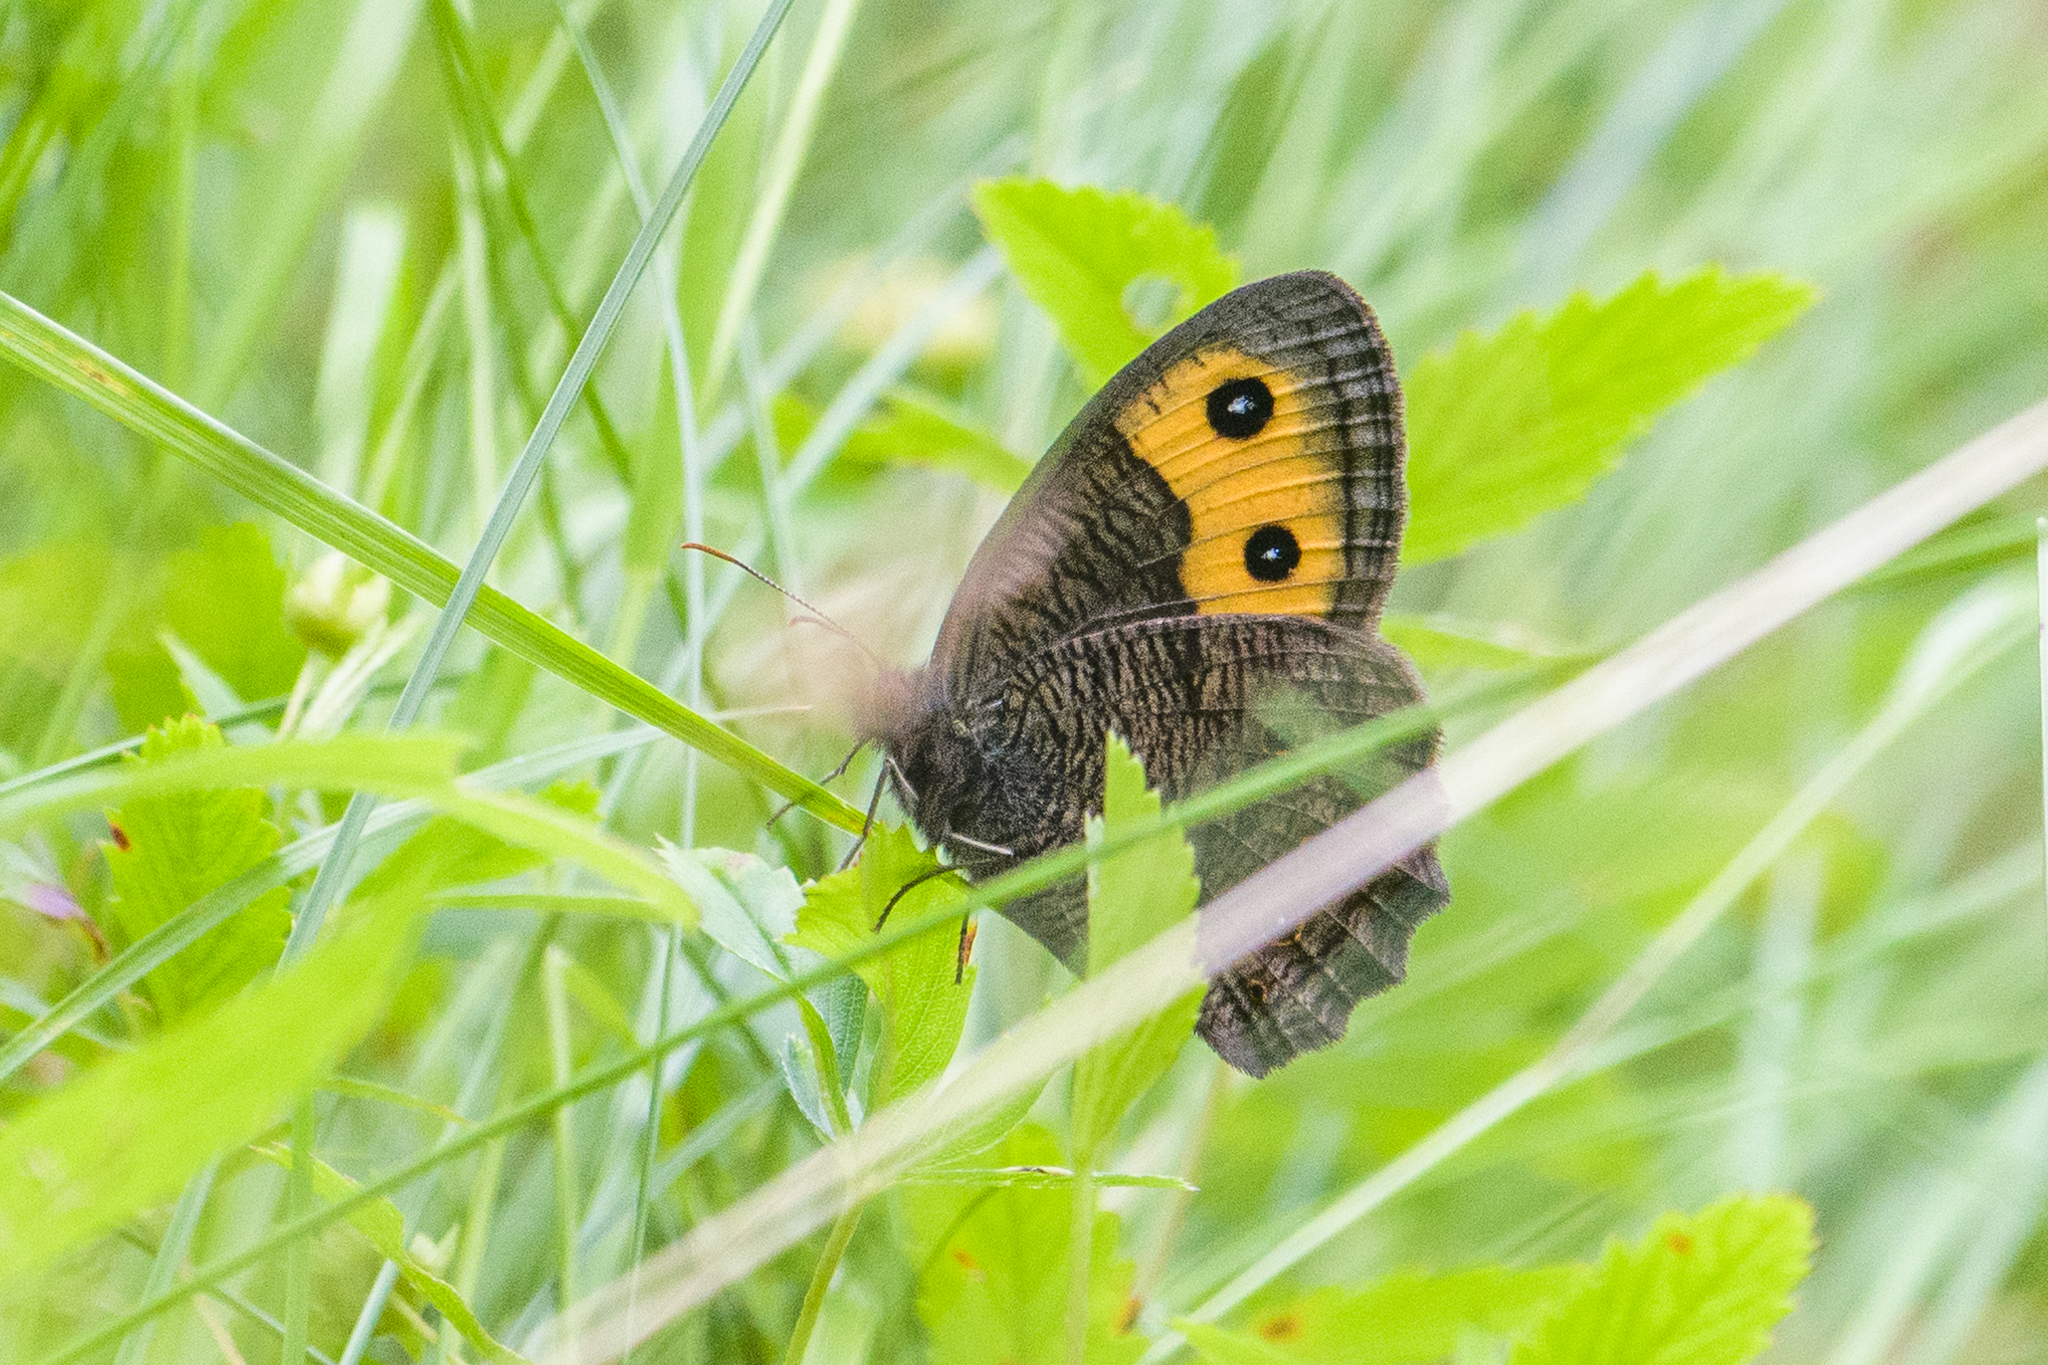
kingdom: Animalia
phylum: Arthropoda
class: Insecta
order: Lepidoptera
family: Nymphalidae
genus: Cercyonis
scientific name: Cercyonis pegala
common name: Common wood-nymph
